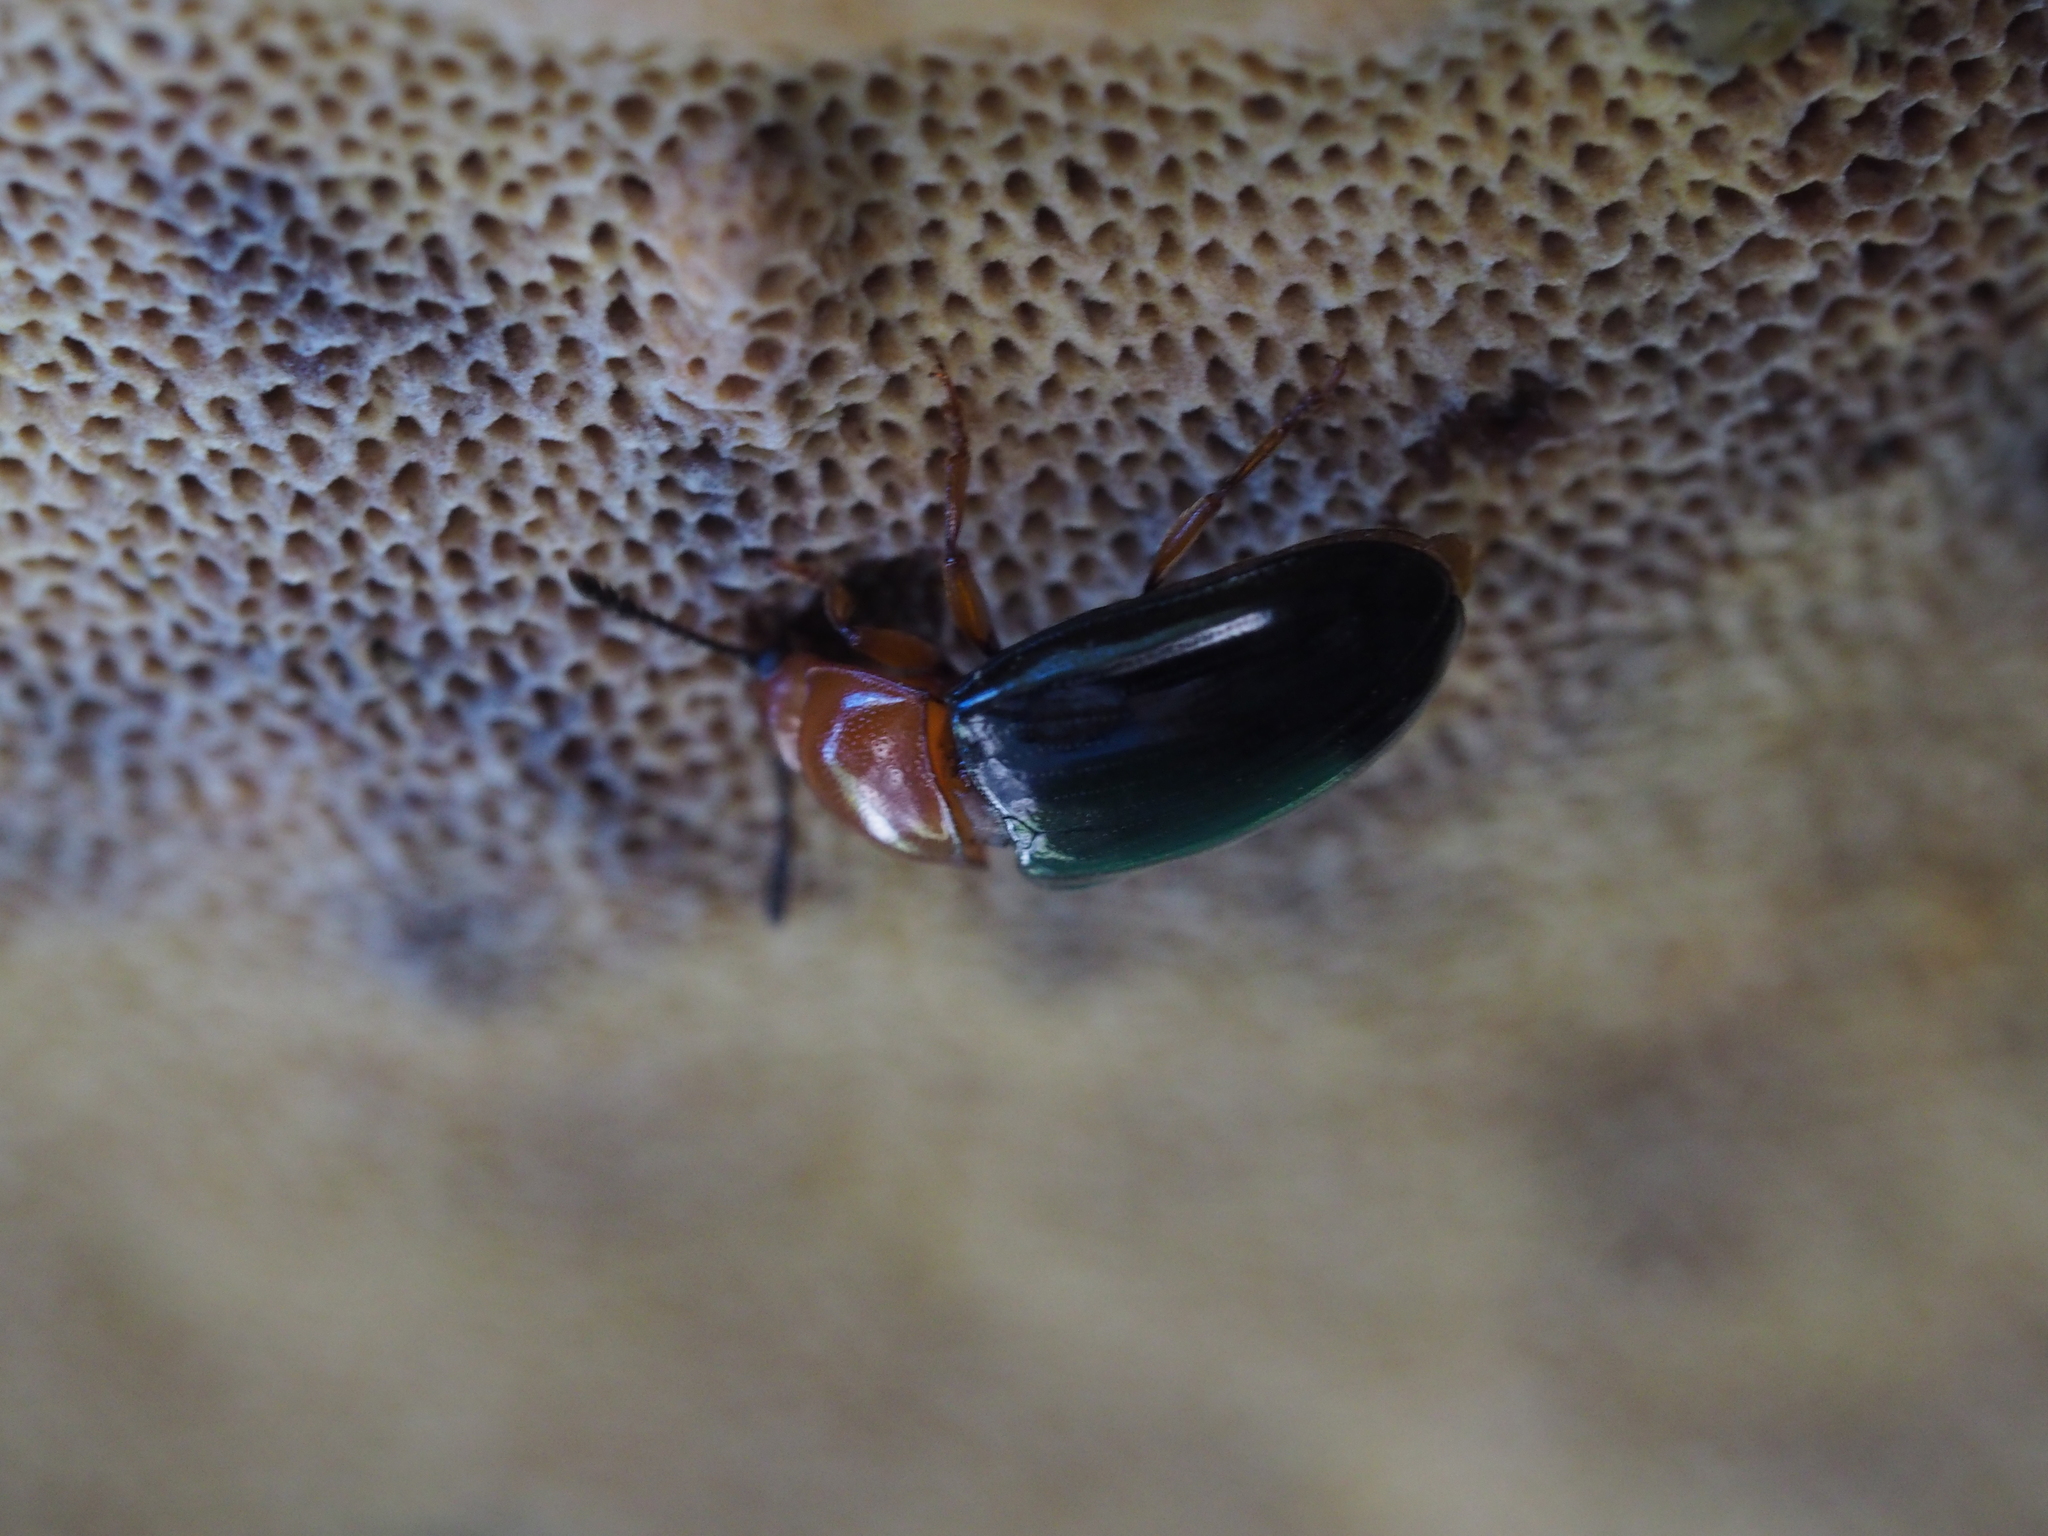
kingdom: Animalia
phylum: Arthropoda
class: Insecta
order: Coleoptera
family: Erotylidae
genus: Triplax
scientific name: Triplax russica
